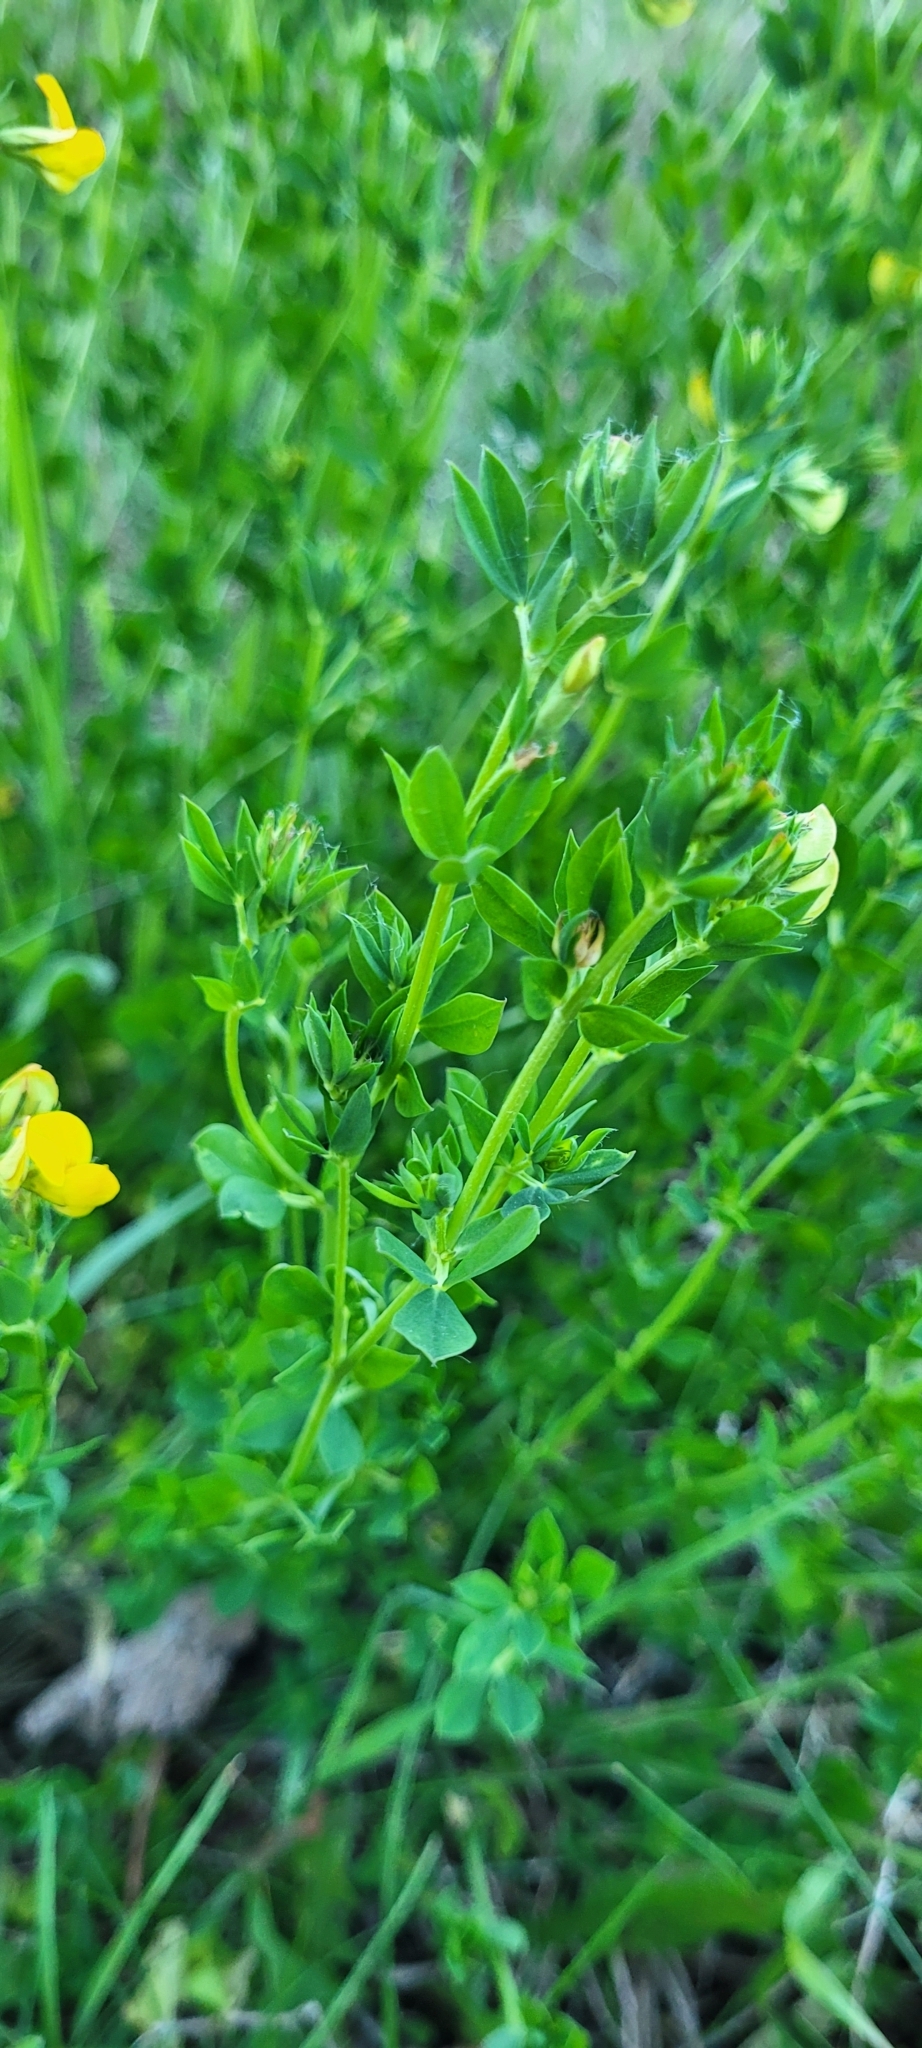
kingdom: Plantae
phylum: Tracheophyta
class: Magnoliopsida
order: Fabales
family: Fabaceae
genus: Lotus
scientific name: Lotus corniculatus
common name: Common bird's-foot-trefoil
